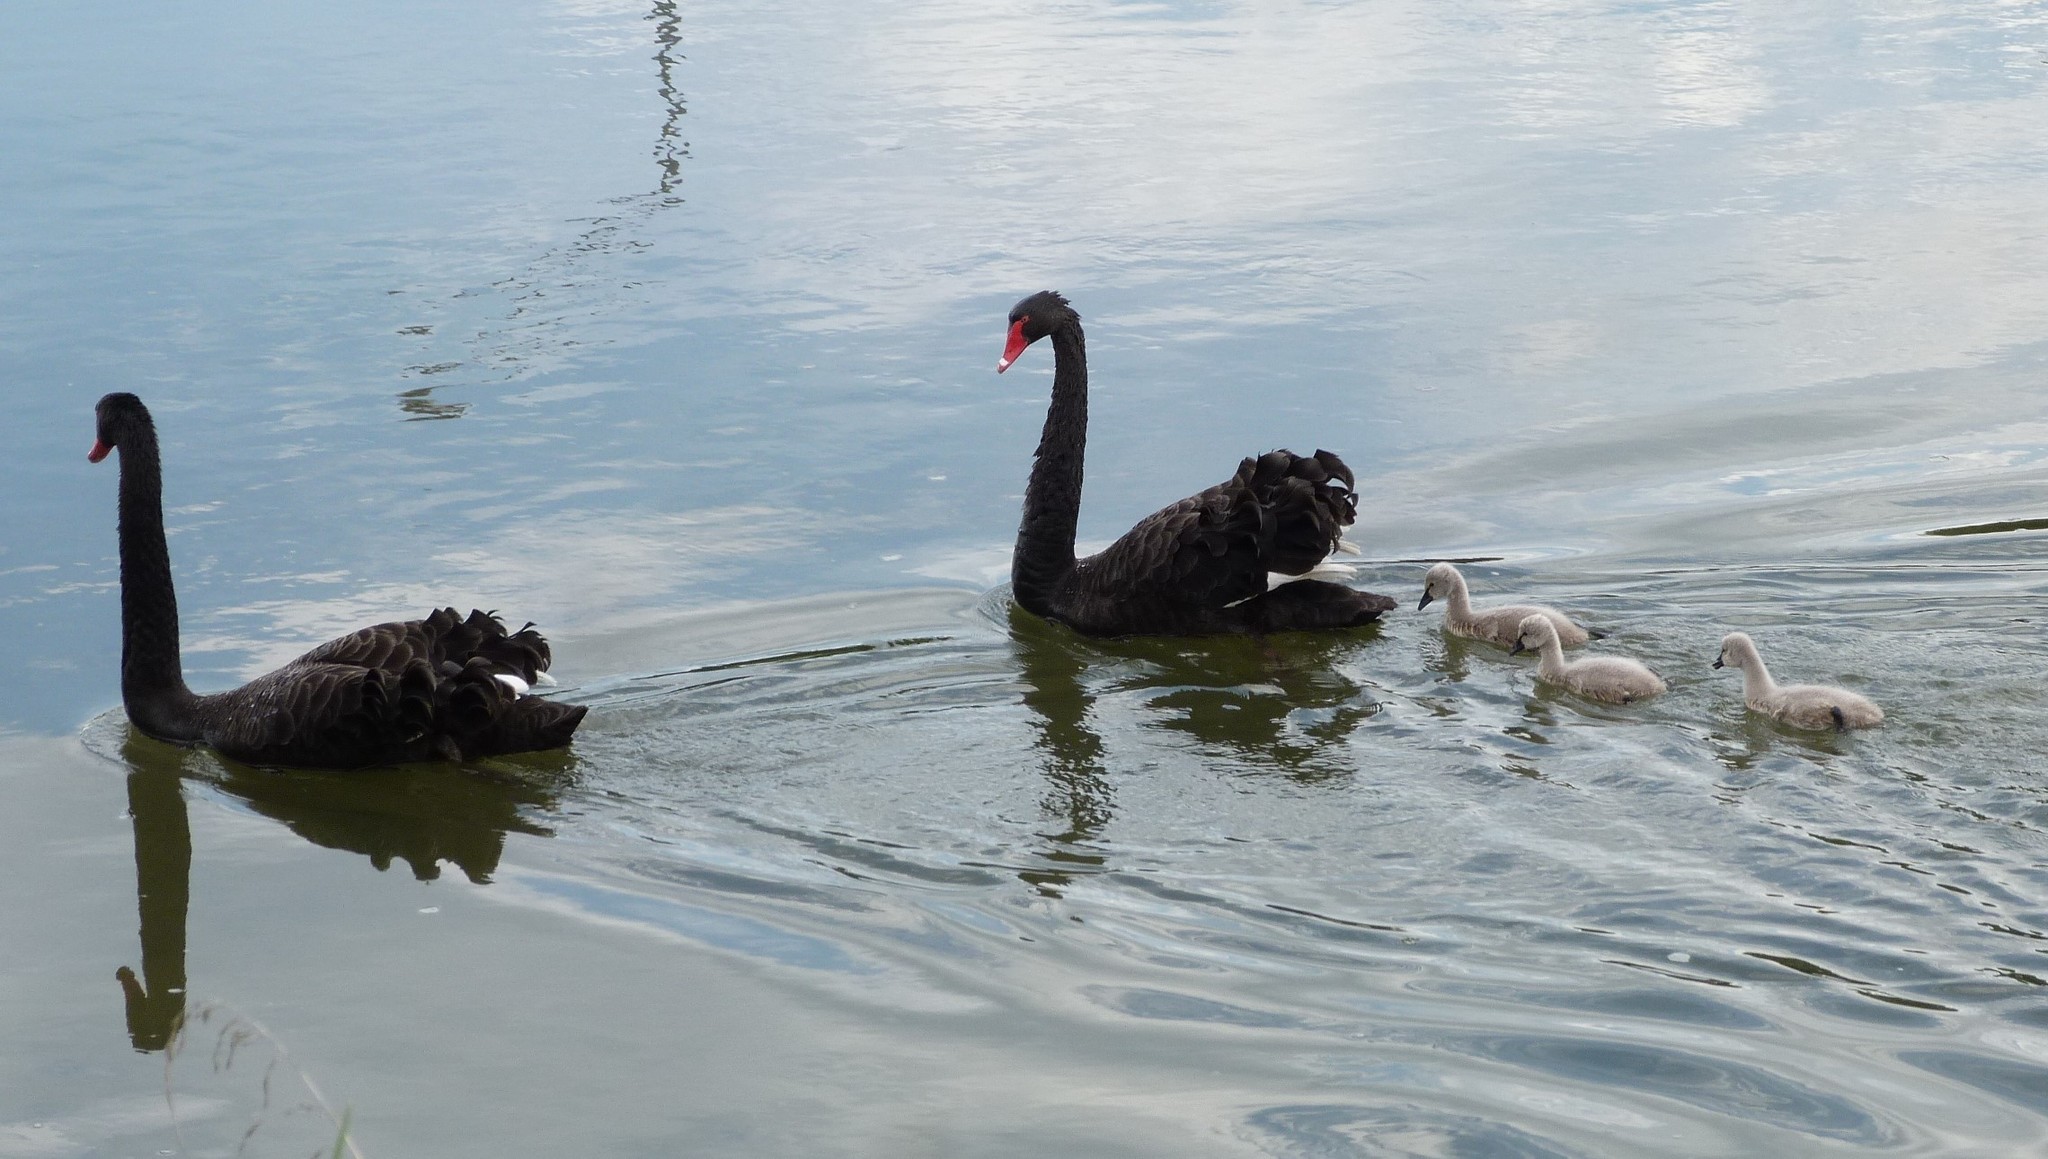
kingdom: Animalia
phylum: Chordata
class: Aves
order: Anseriformes
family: Anatidae
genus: Cygnus
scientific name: Cygnus atratus
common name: Black swan
